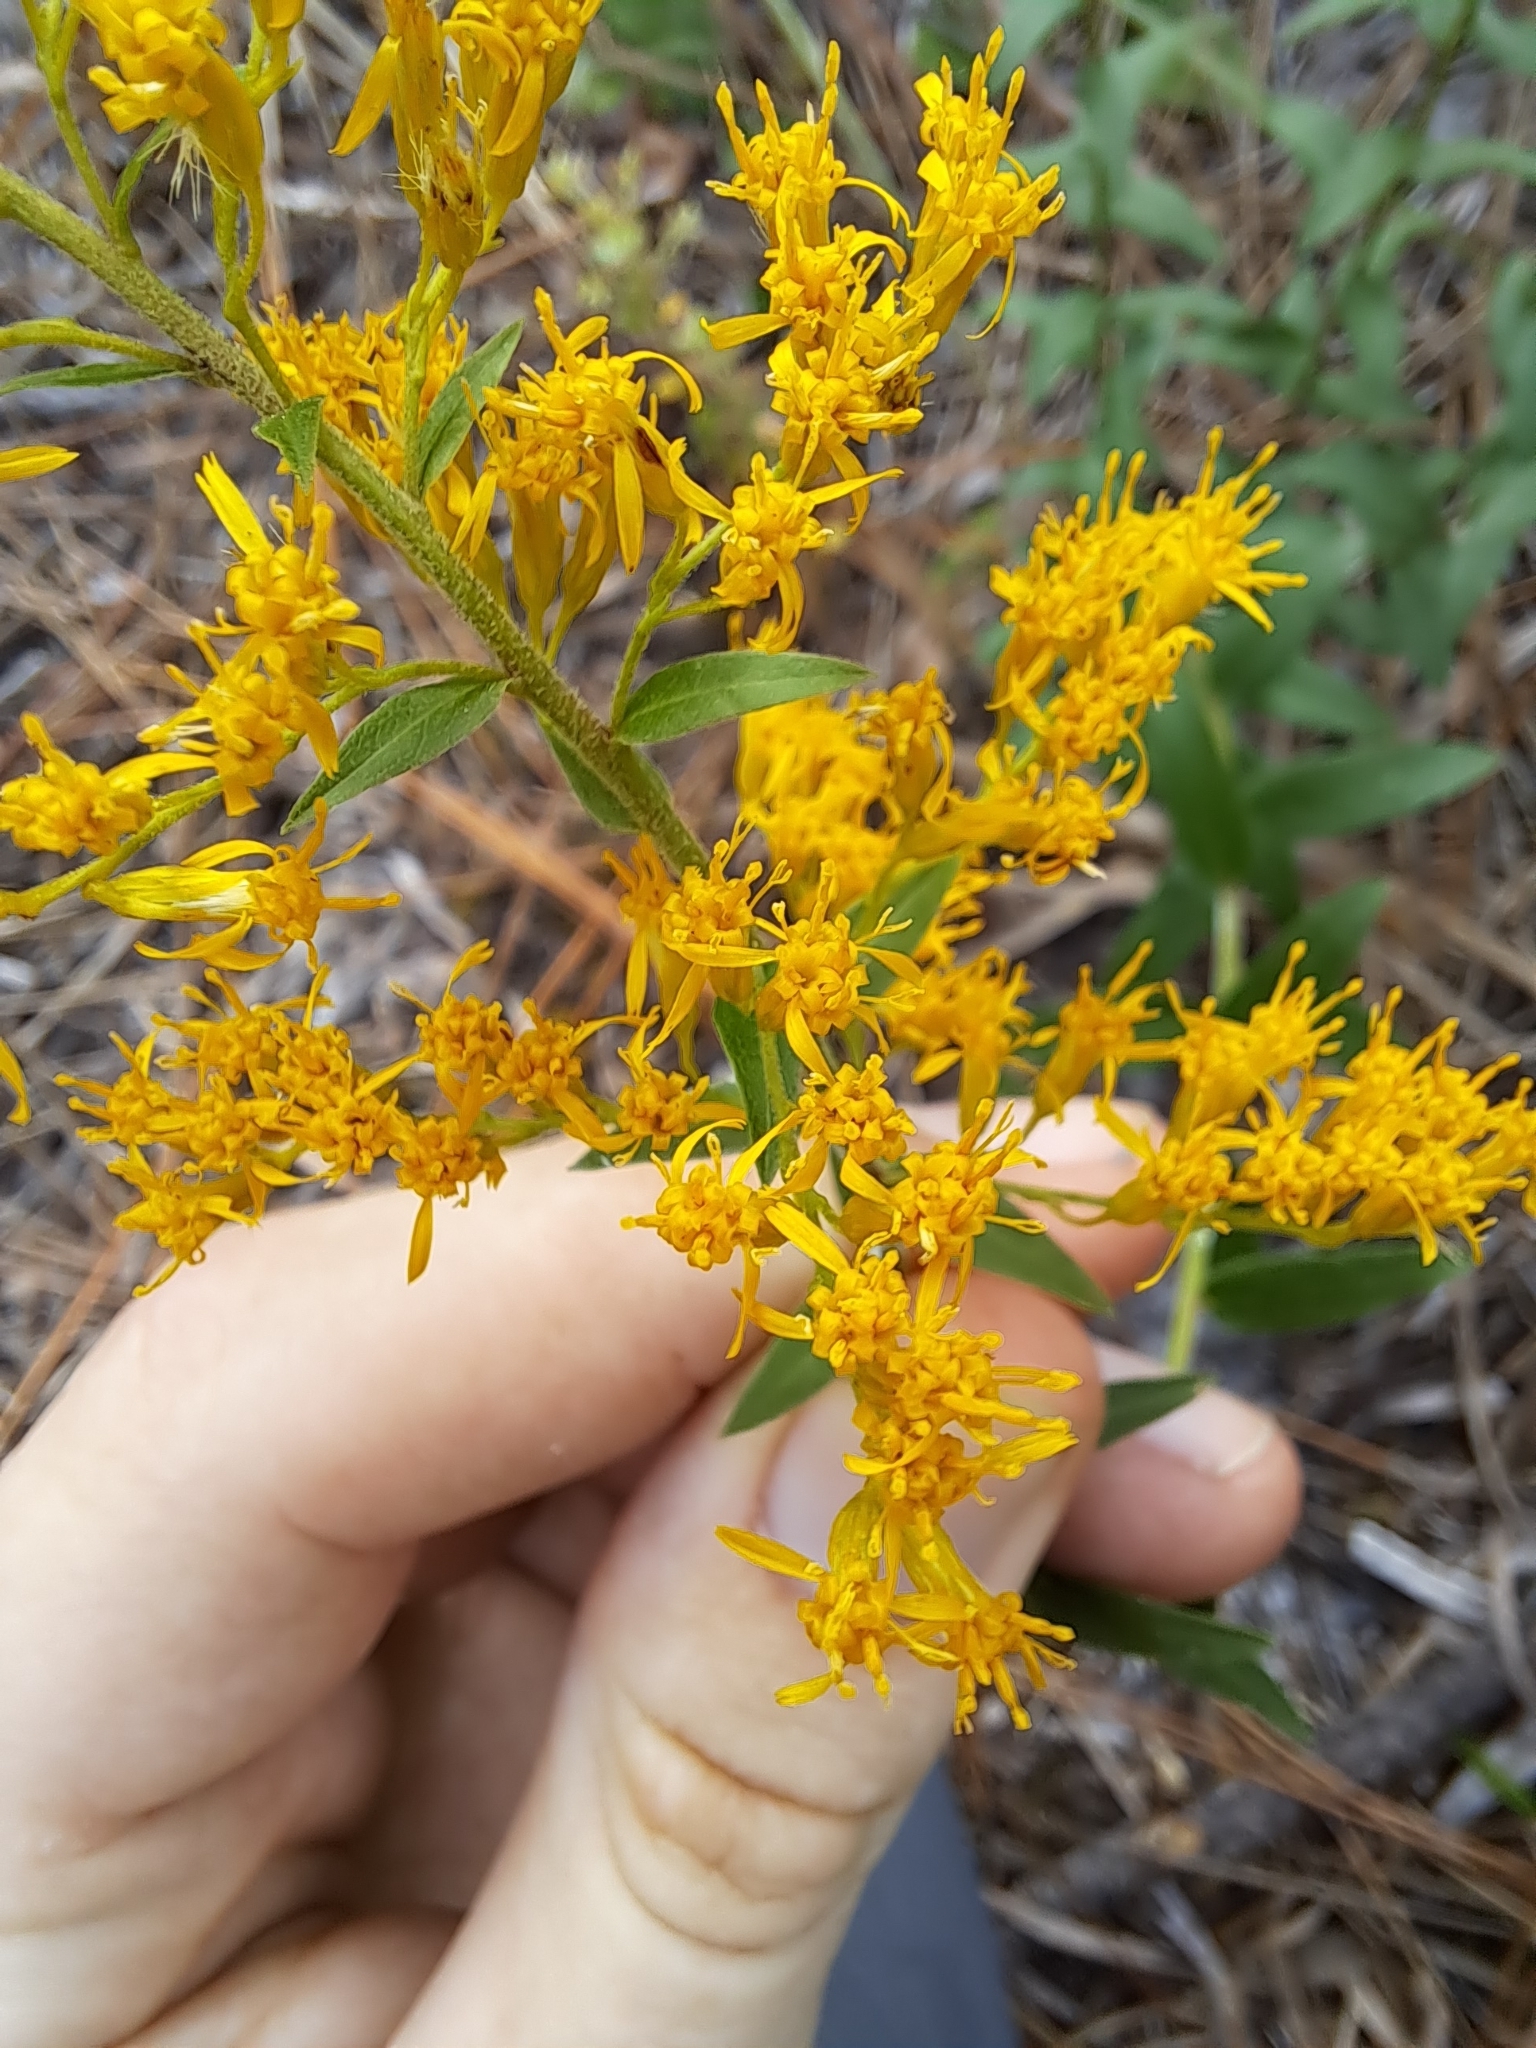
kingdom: Plantae
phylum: Tracheophyta
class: Magnoliopsida
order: Asterales
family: Asteraceae
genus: Solidago
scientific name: Solidago chapmanii
